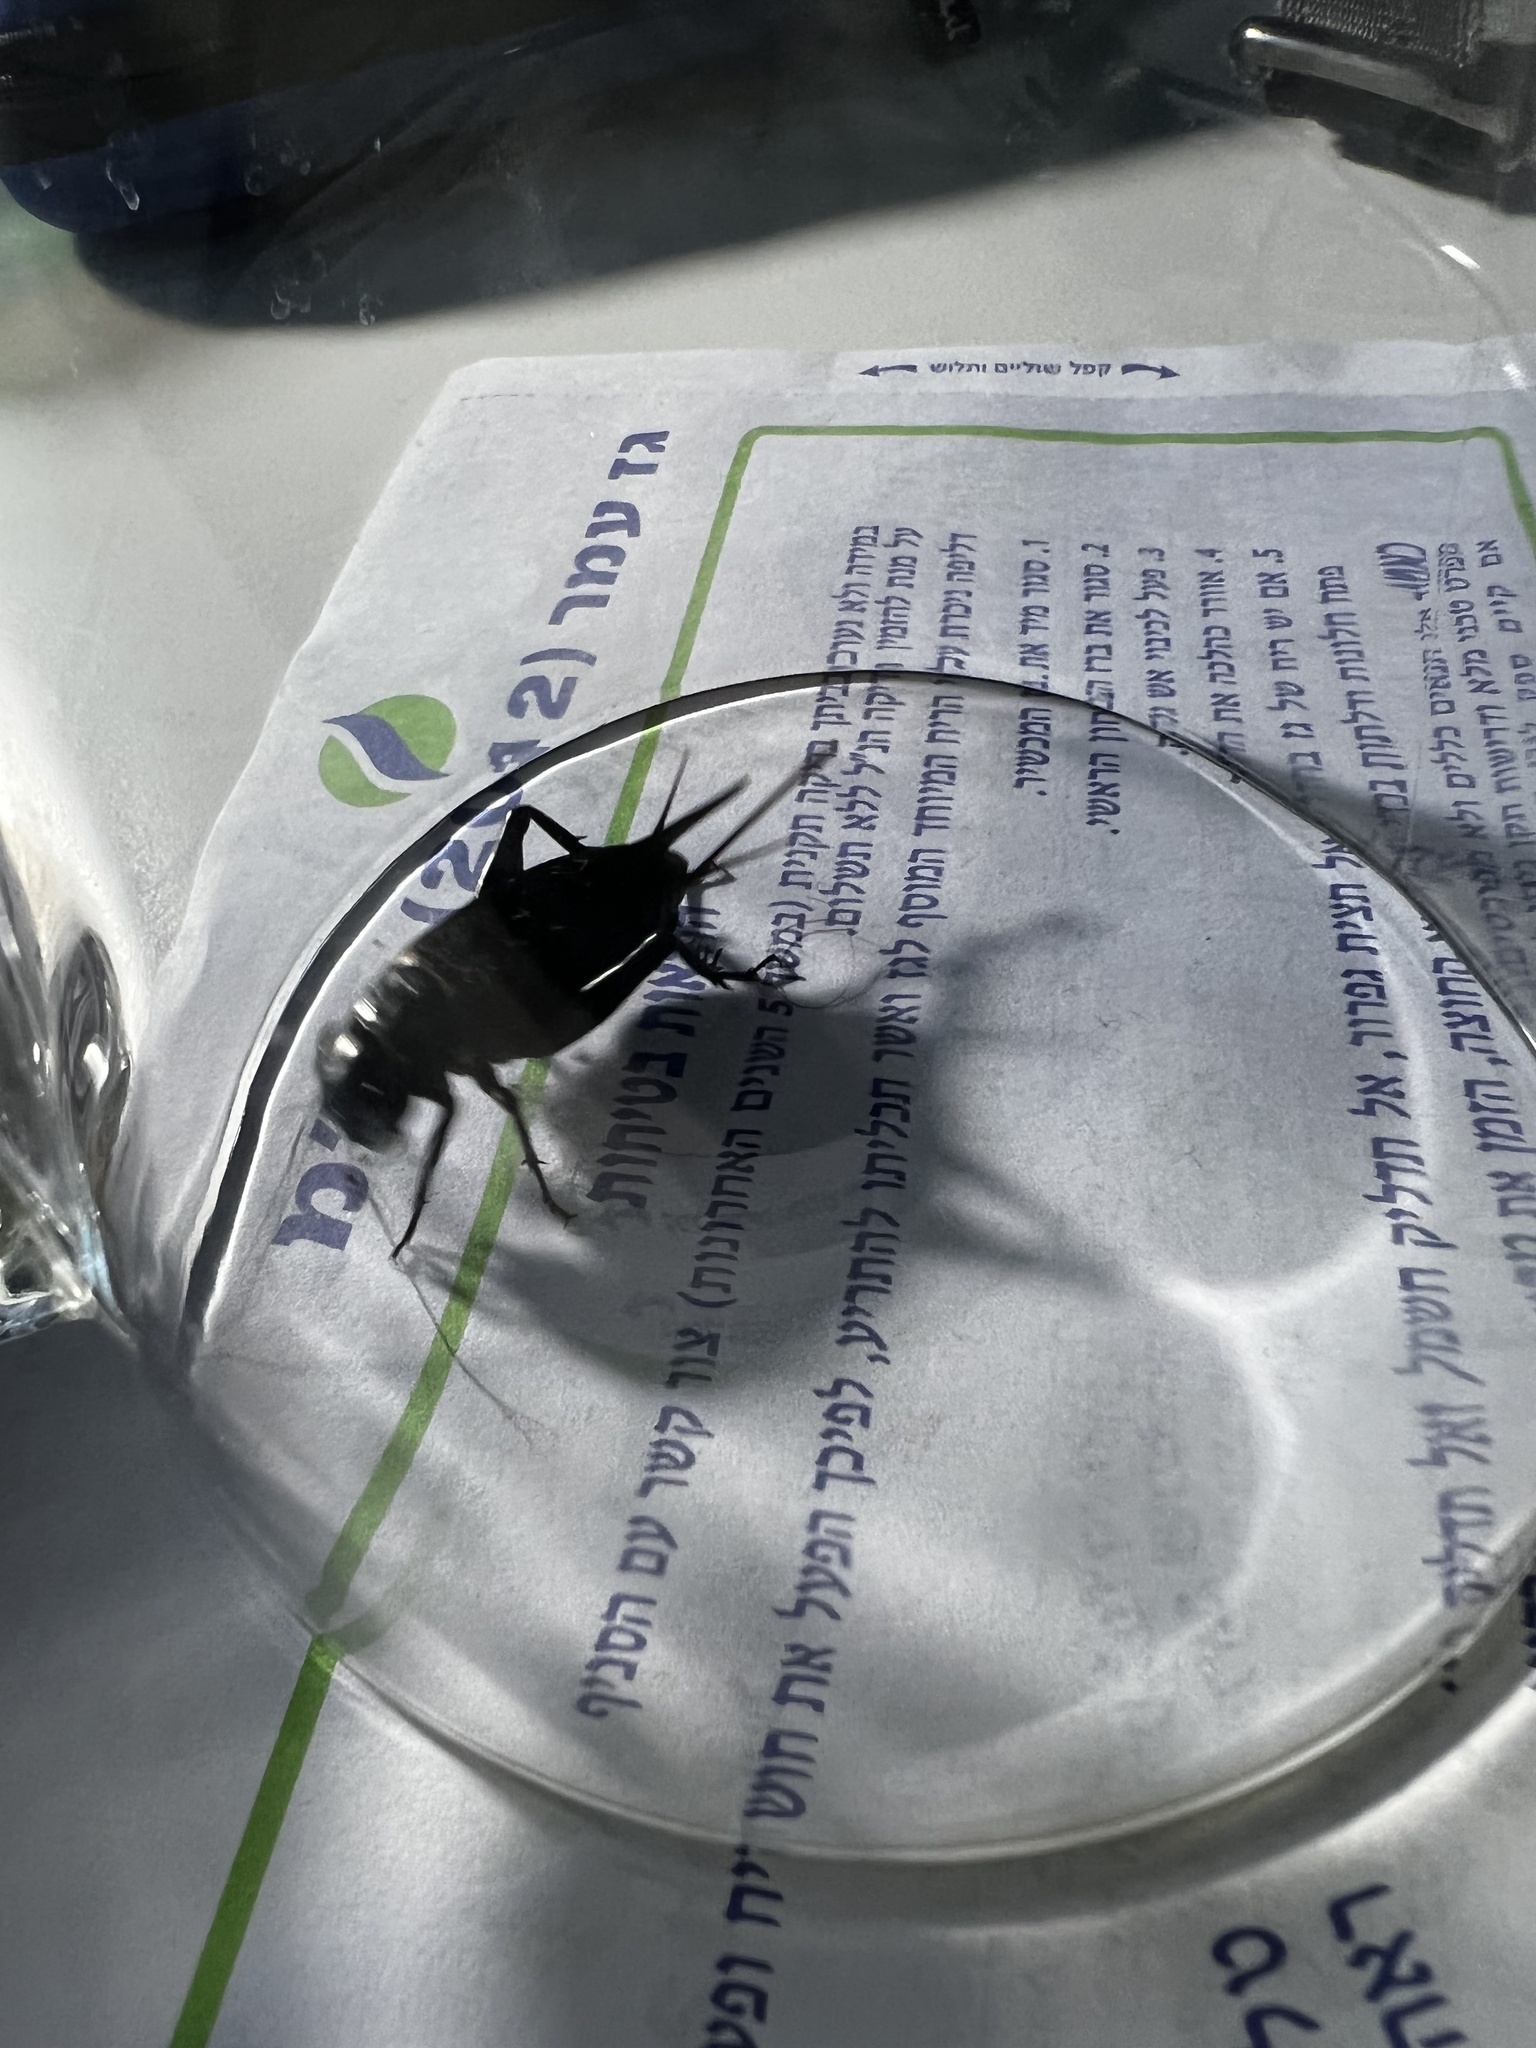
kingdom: Animalia
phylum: Arthropoda
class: Insecta
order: Orthoptera
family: Gryllidae
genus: Gryllus
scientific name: Gryllus bimaculatus
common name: Two-spotted cricket
